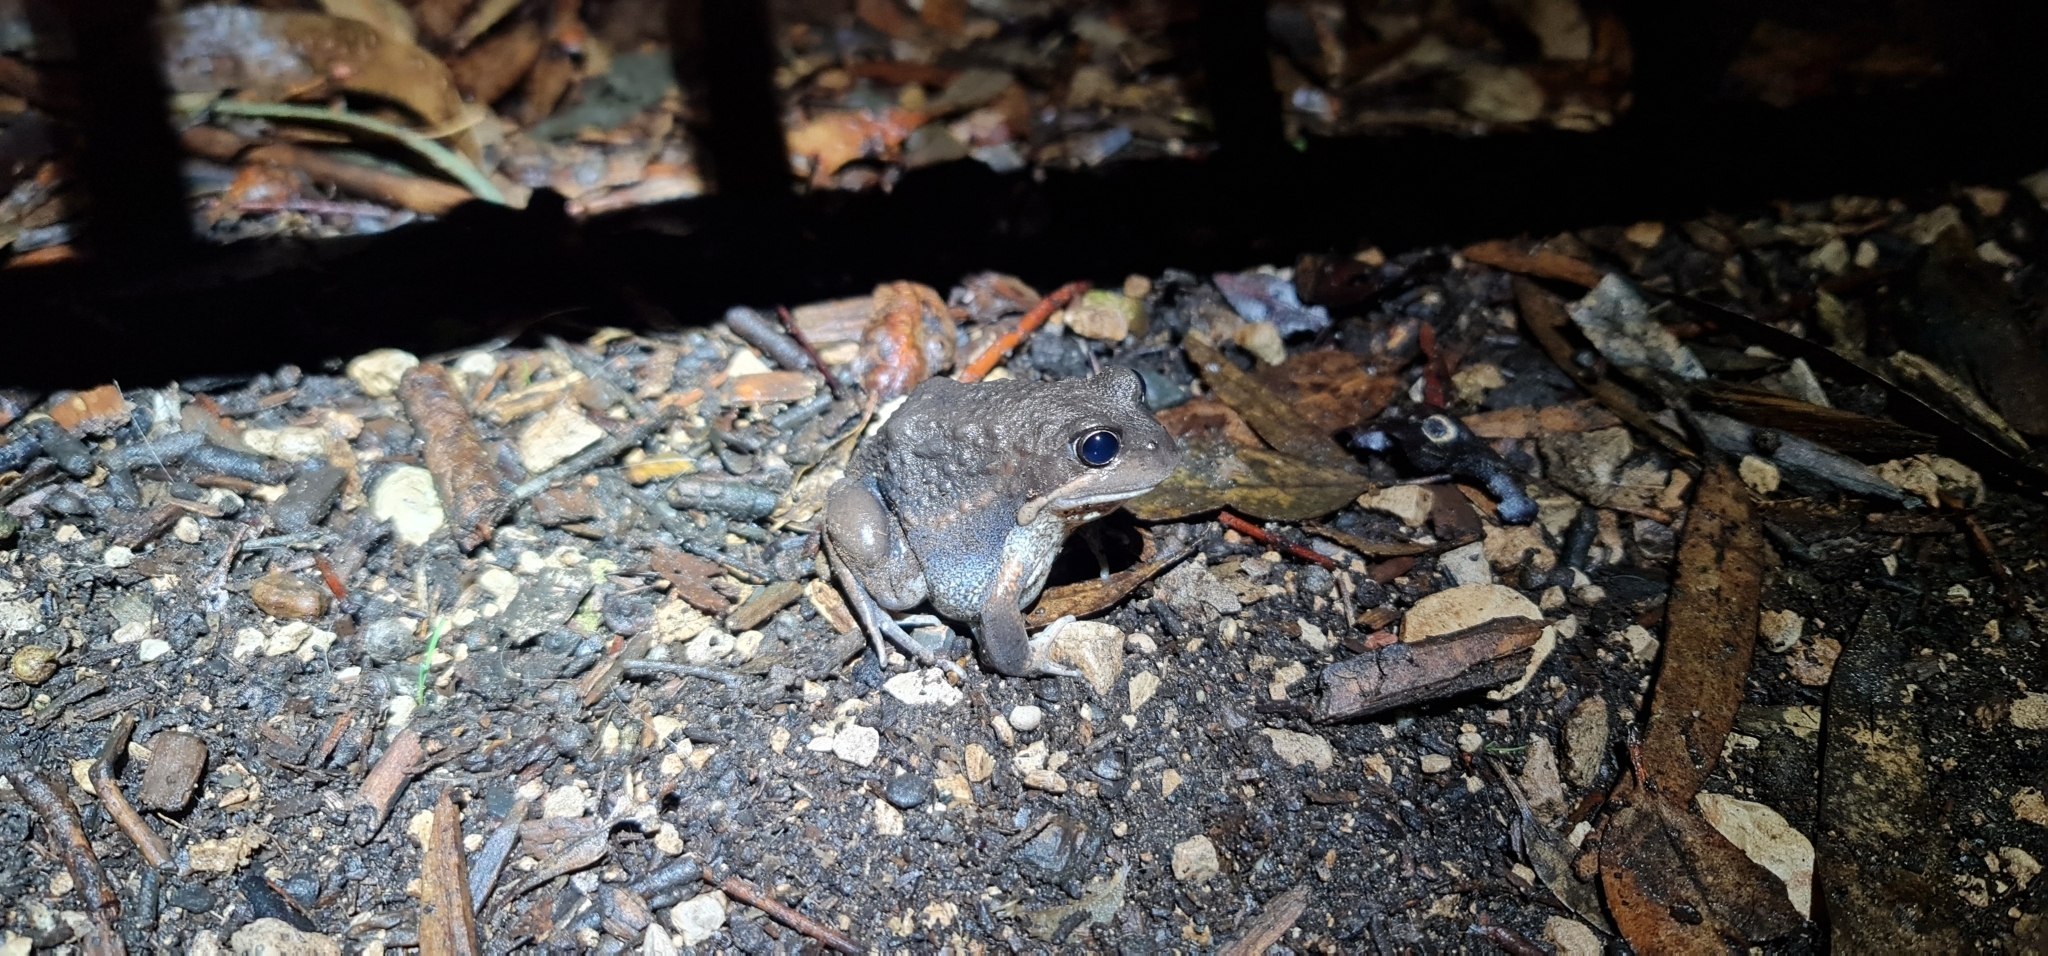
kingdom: Animalia
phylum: Chordata
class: Amphibia
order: Anura
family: Limnodynastidae
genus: Limnodynastes
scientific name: Limnodynastes dumerilii
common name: Banjo frog
